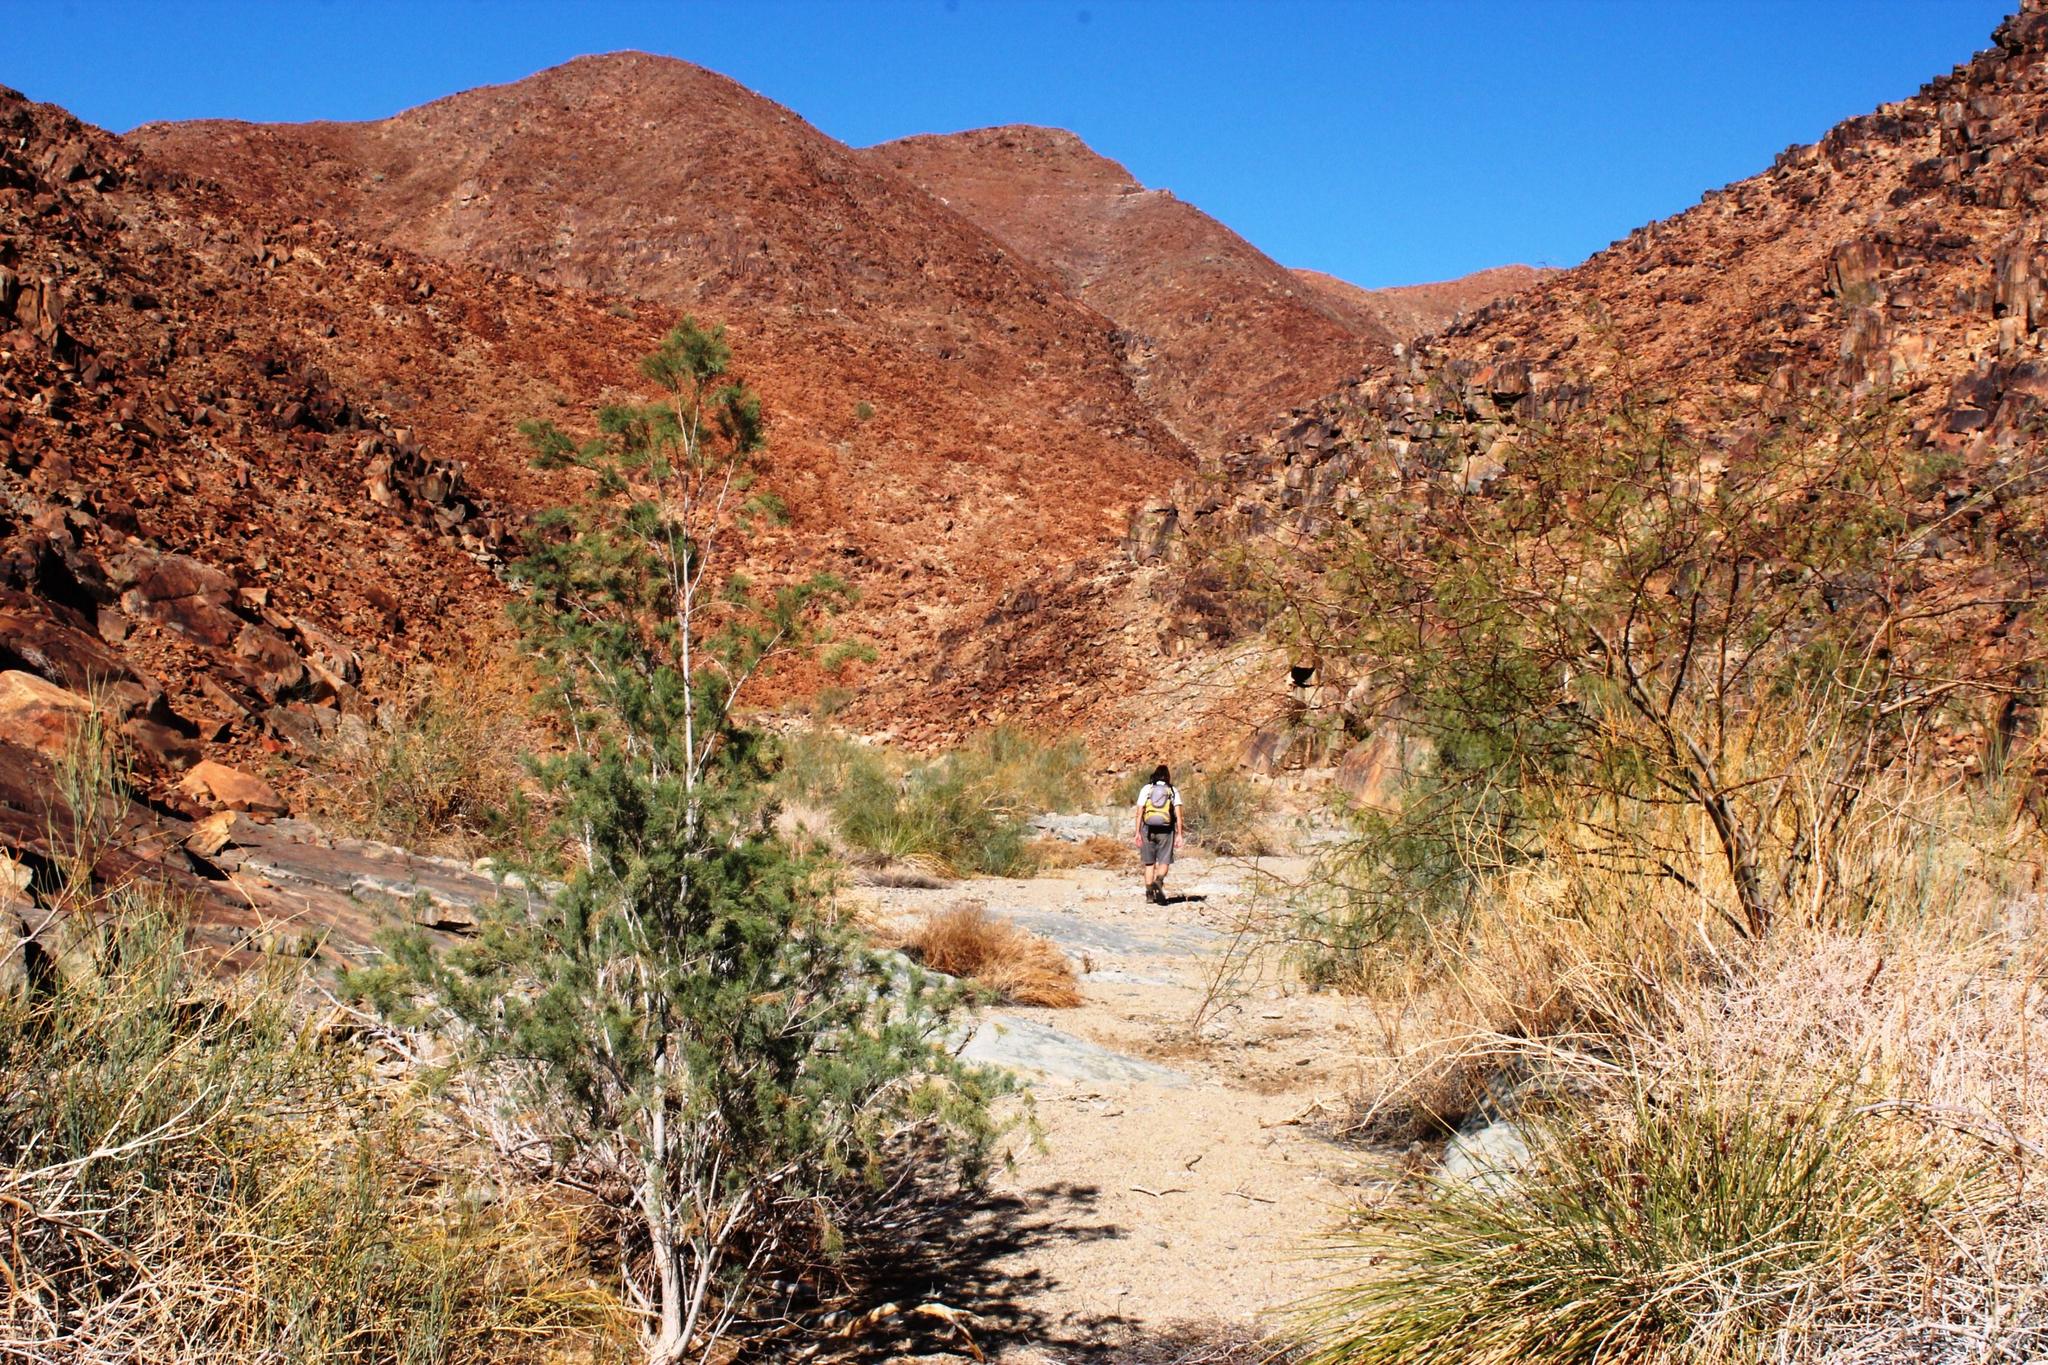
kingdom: Plantae
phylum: Tracheophyta
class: Magnoliopsida
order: Caryophyllales
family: Tamaricaceae
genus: Tamarix
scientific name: Tamarix usneoides
